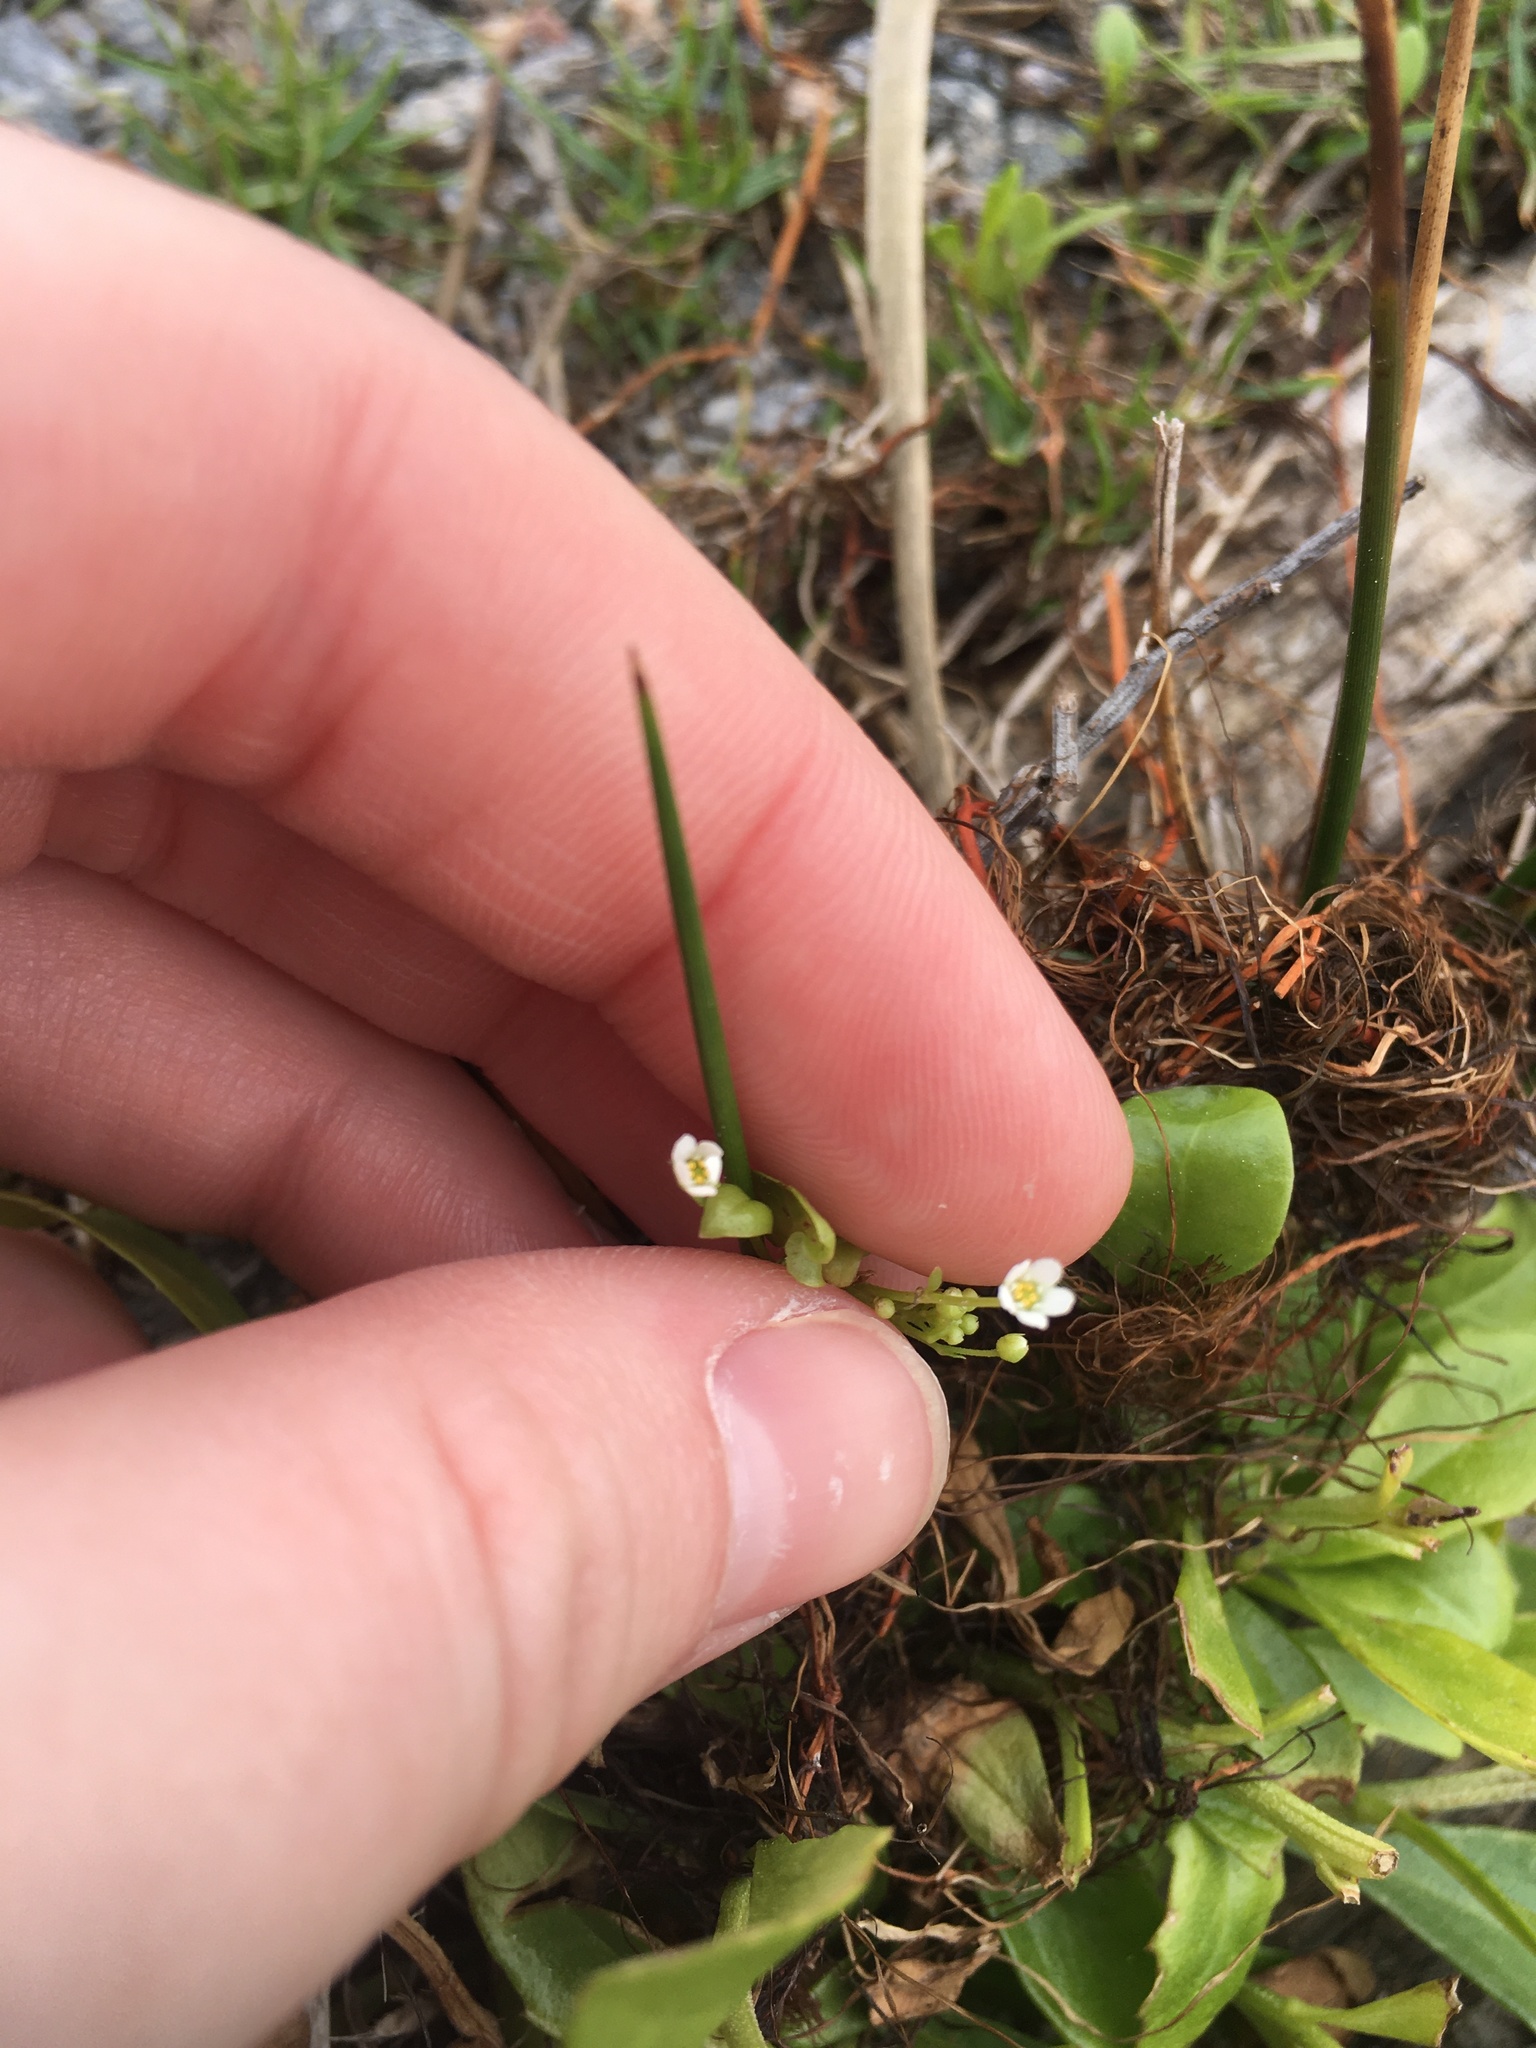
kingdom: Plantae
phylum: Tracheophyta
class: Magnoliopsida
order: Ericales
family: Primulaceae
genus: Samolus
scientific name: Samolus parviflorus
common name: False water pimpernel
